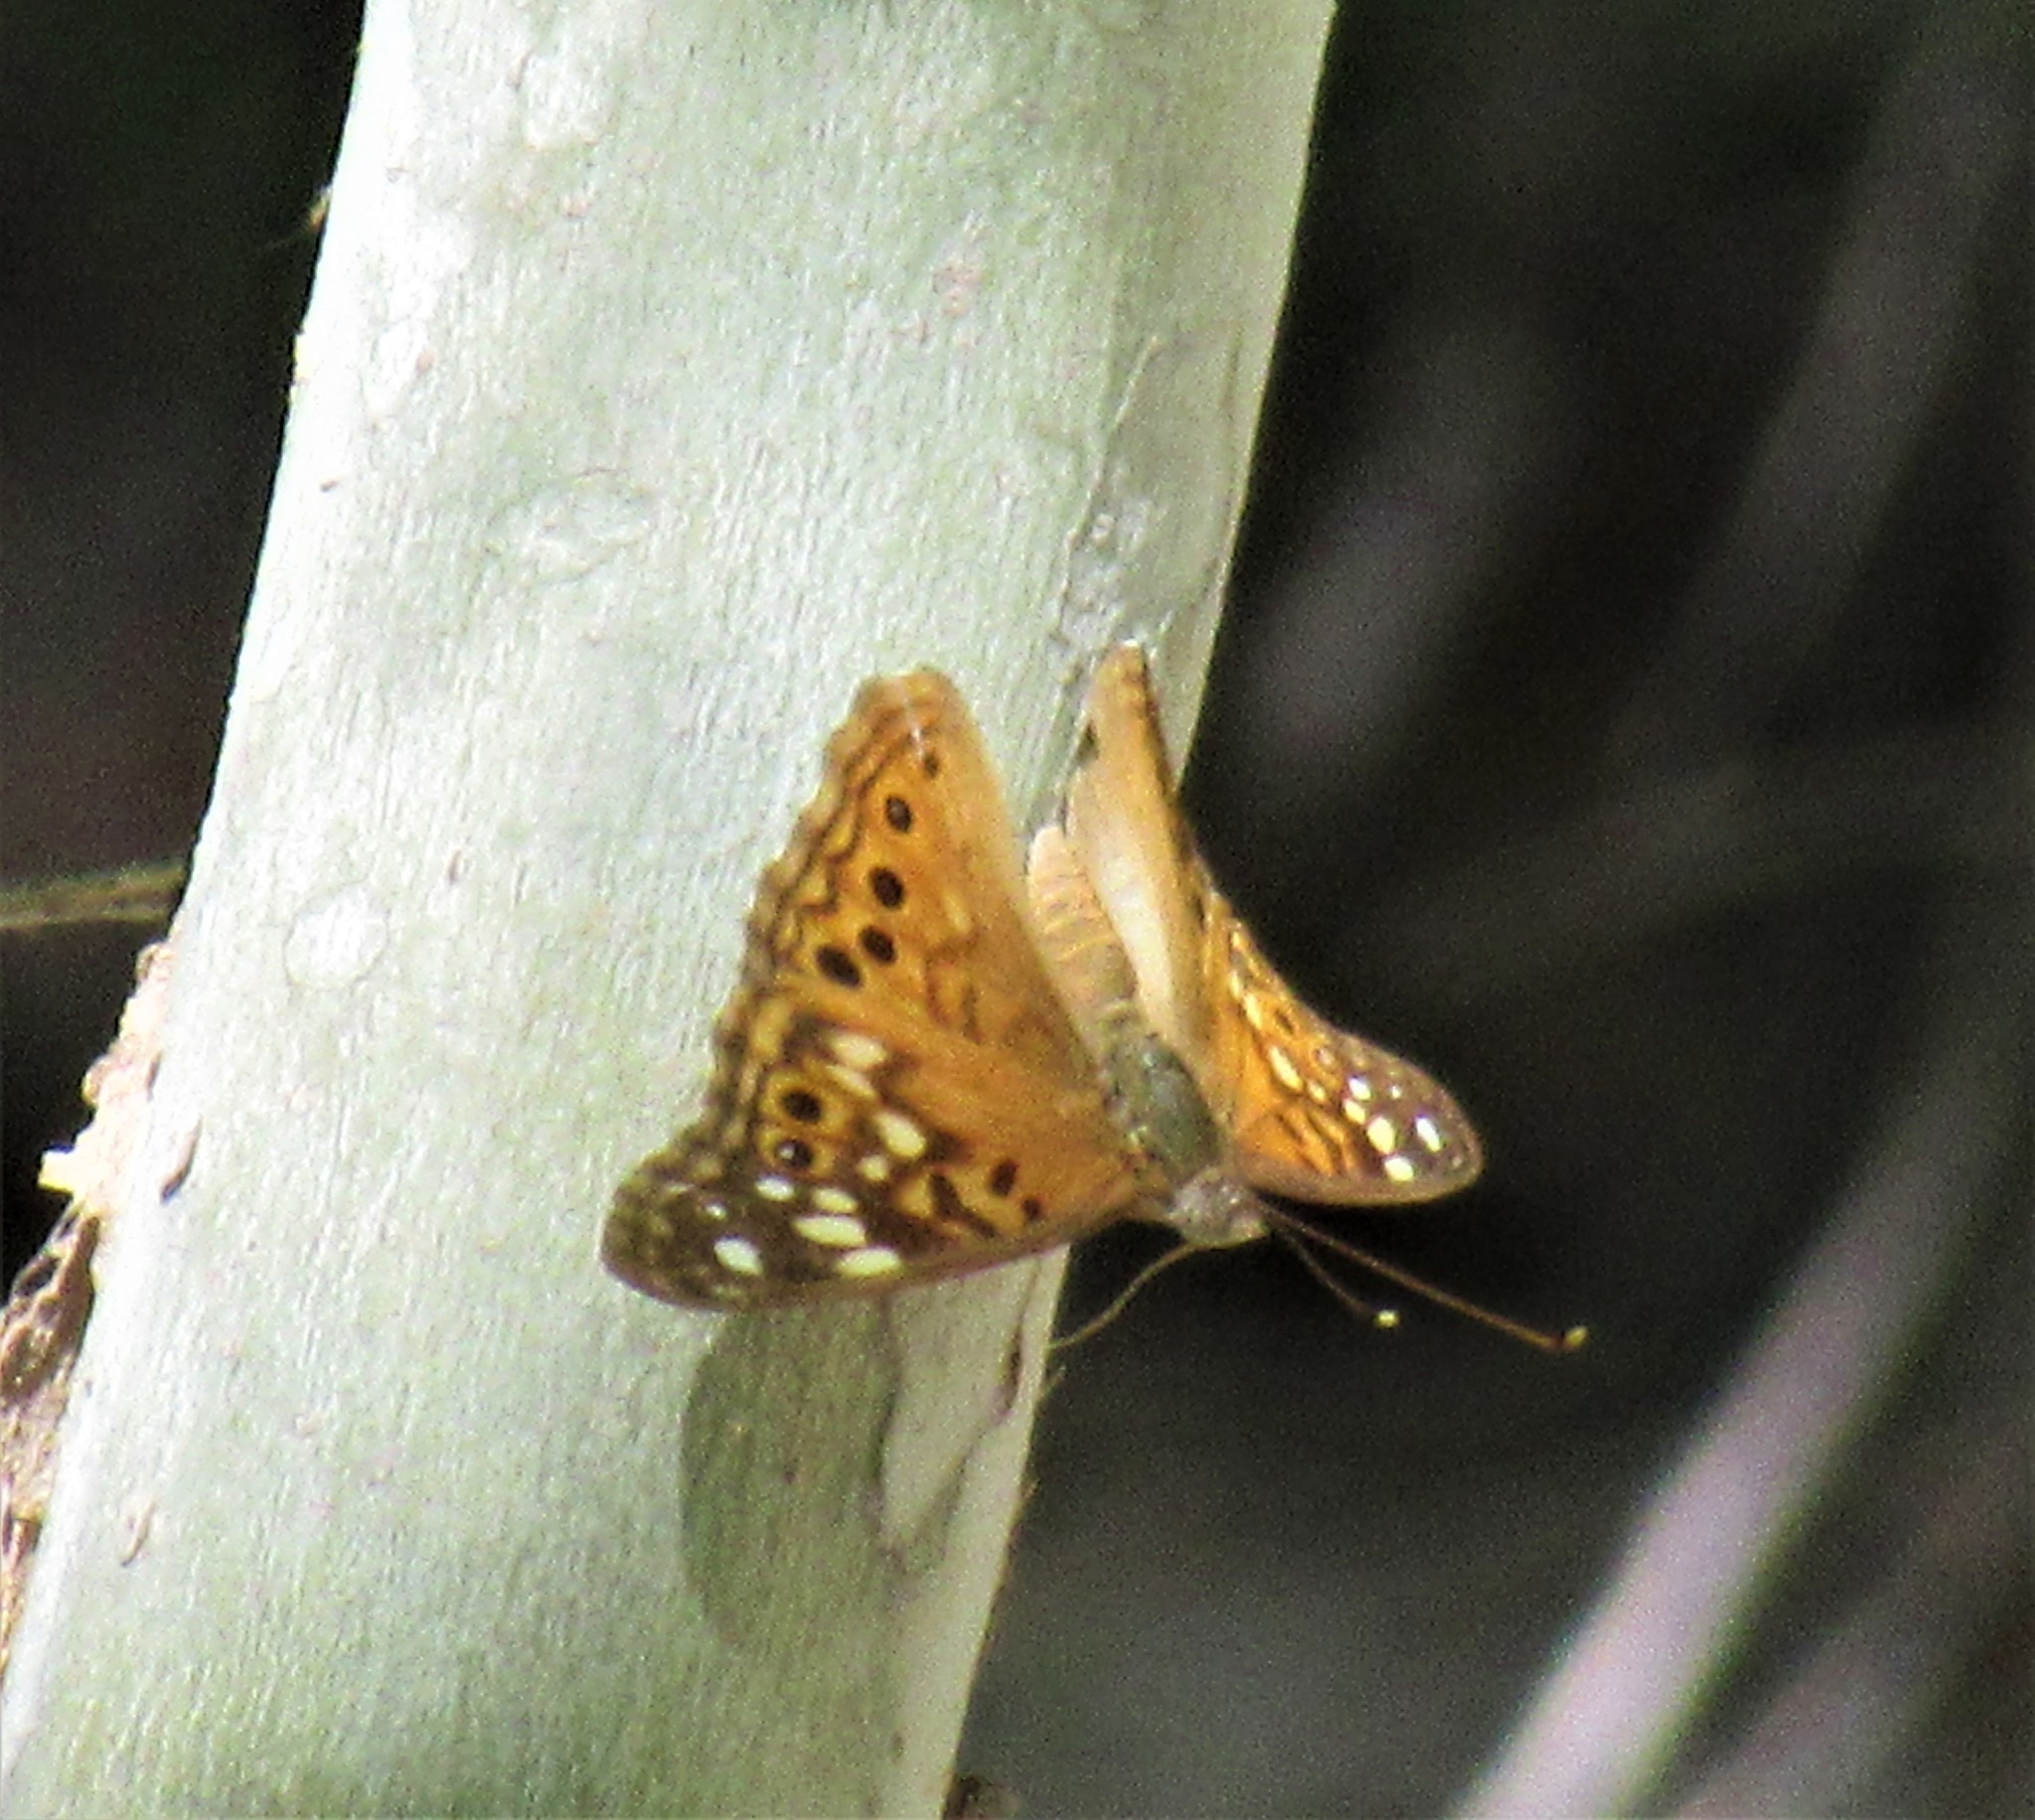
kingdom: Animalia
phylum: Arthropoda
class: Insecta
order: Lepidoptera
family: Nymphalidae
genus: Asterocampa
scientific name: Asterocampa celtis
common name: Hackberry emperor
